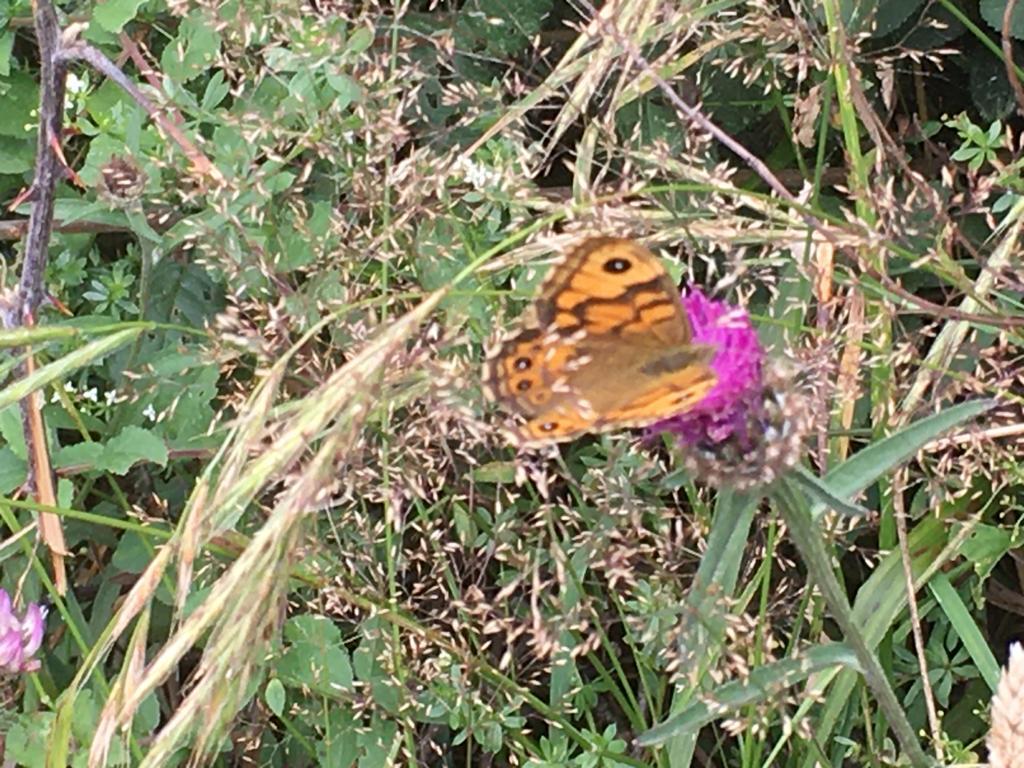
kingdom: Animalia
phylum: Arthropoda
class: Insecta
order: Lepidoptera
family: Nymphalidae
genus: Pararge
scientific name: Pararge Lasiommata megera
